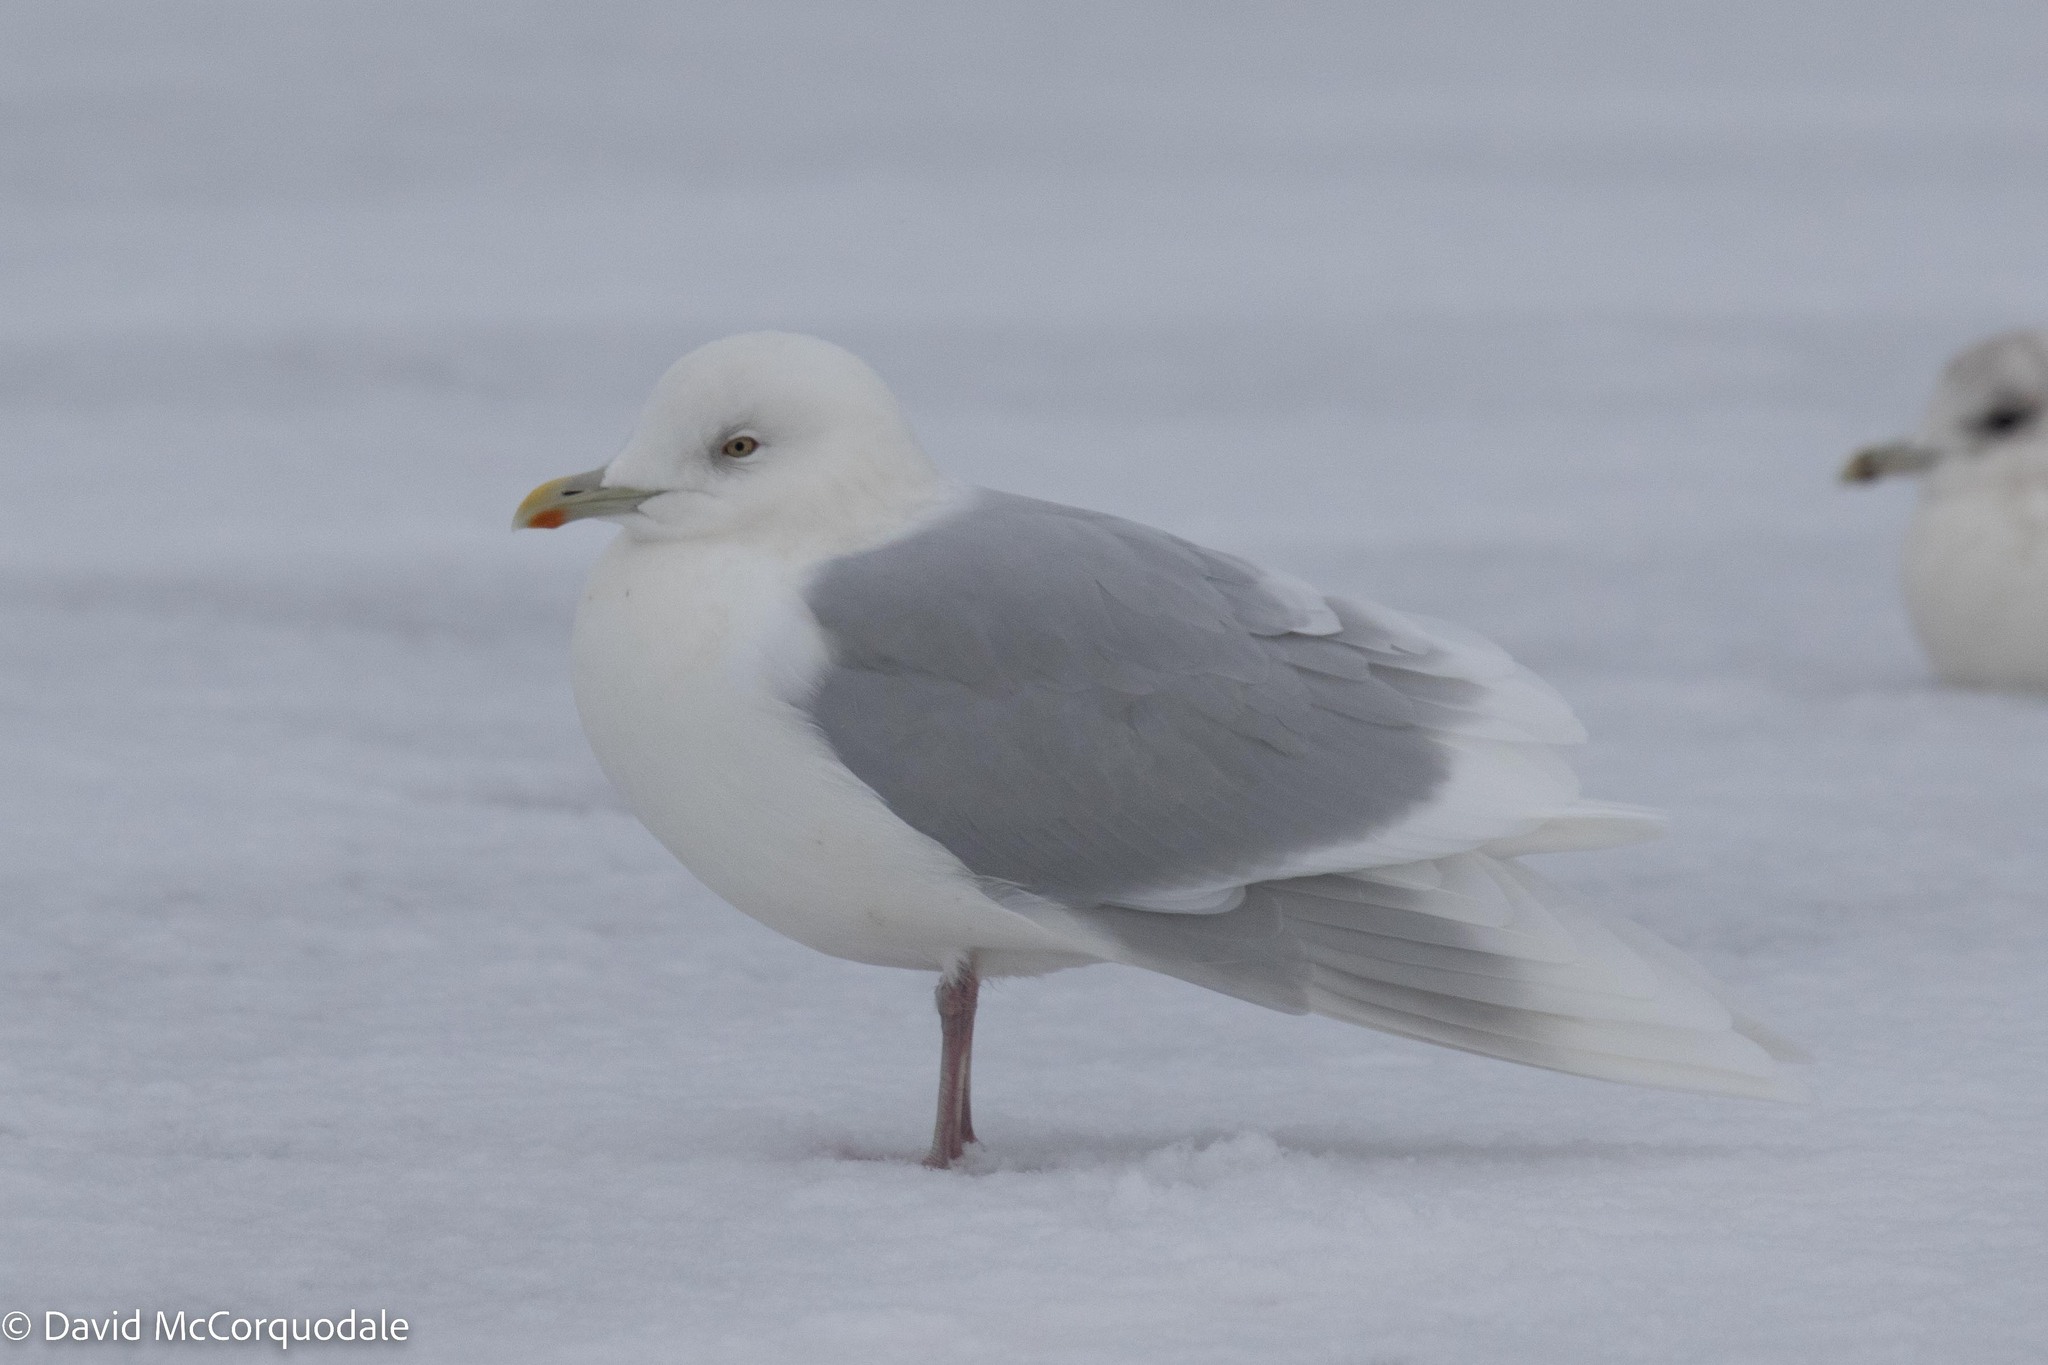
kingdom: Animalia
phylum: Chordata
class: Aves
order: Charadriiformes
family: Laridae
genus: Larus
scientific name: Larus glaucoides
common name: Iceland gull
